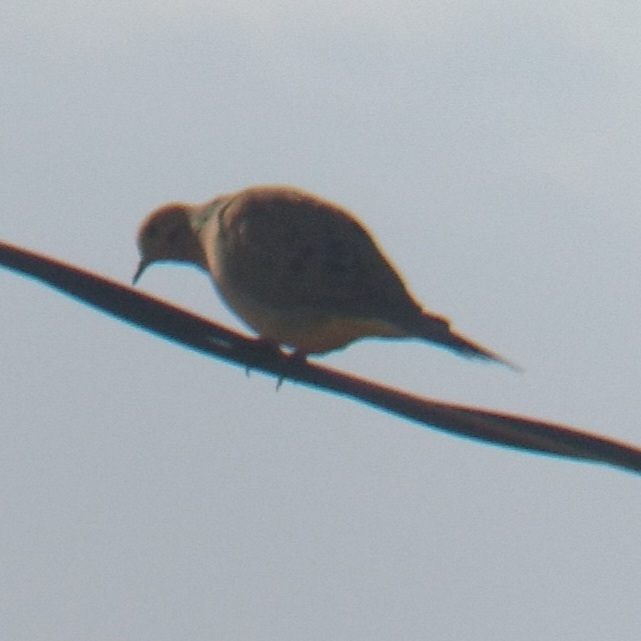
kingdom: Animalia
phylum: Chordata
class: Aves
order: Columbiformes
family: Columbidae
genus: Zenaida
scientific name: Zenaida macroura
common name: Mourning dove
